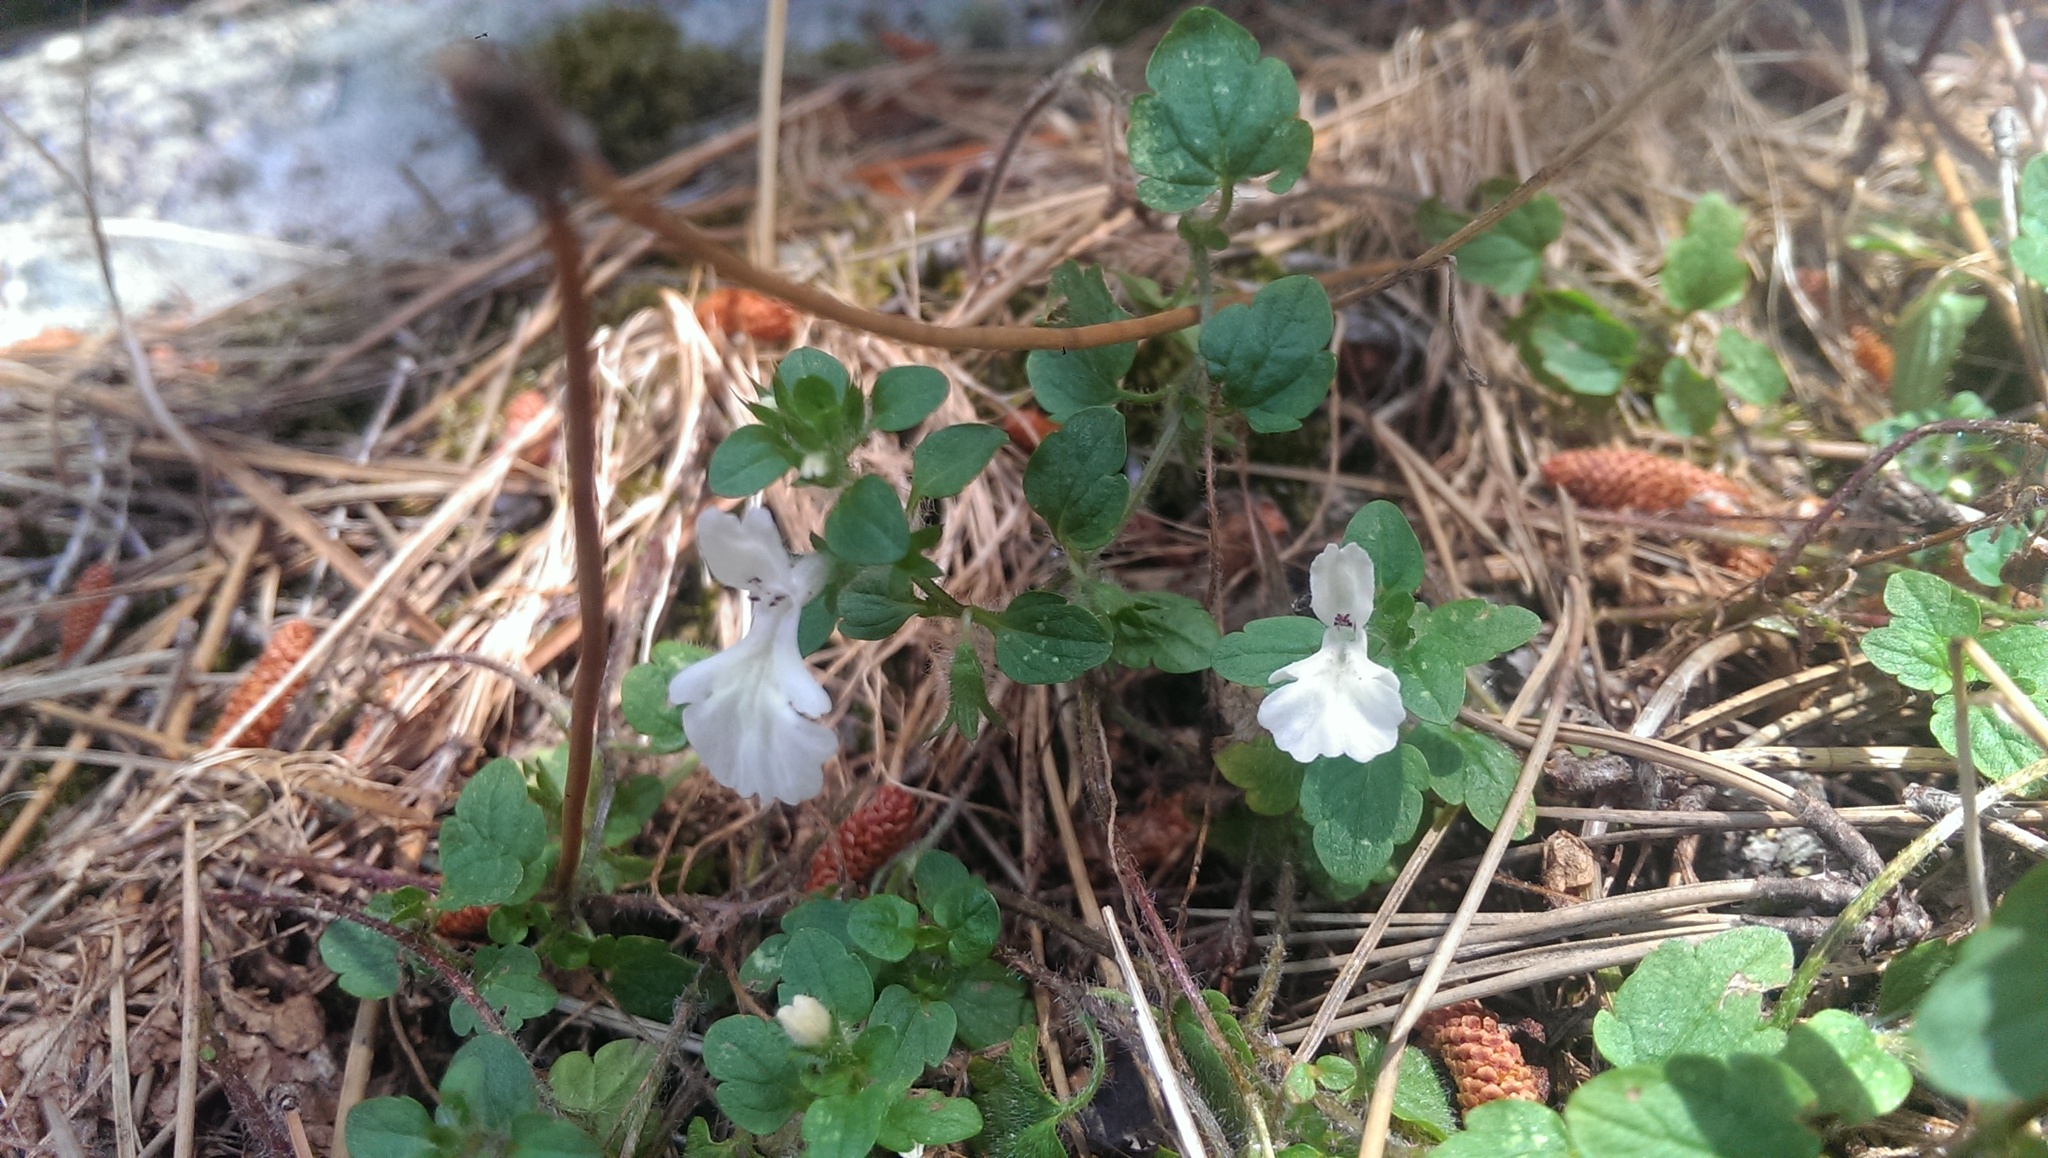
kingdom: Plantae
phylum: Tracheophyta
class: Magnoliopsida
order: Lamiales
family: Lamiaceae
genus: Stachys
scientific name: Stachys corsica
